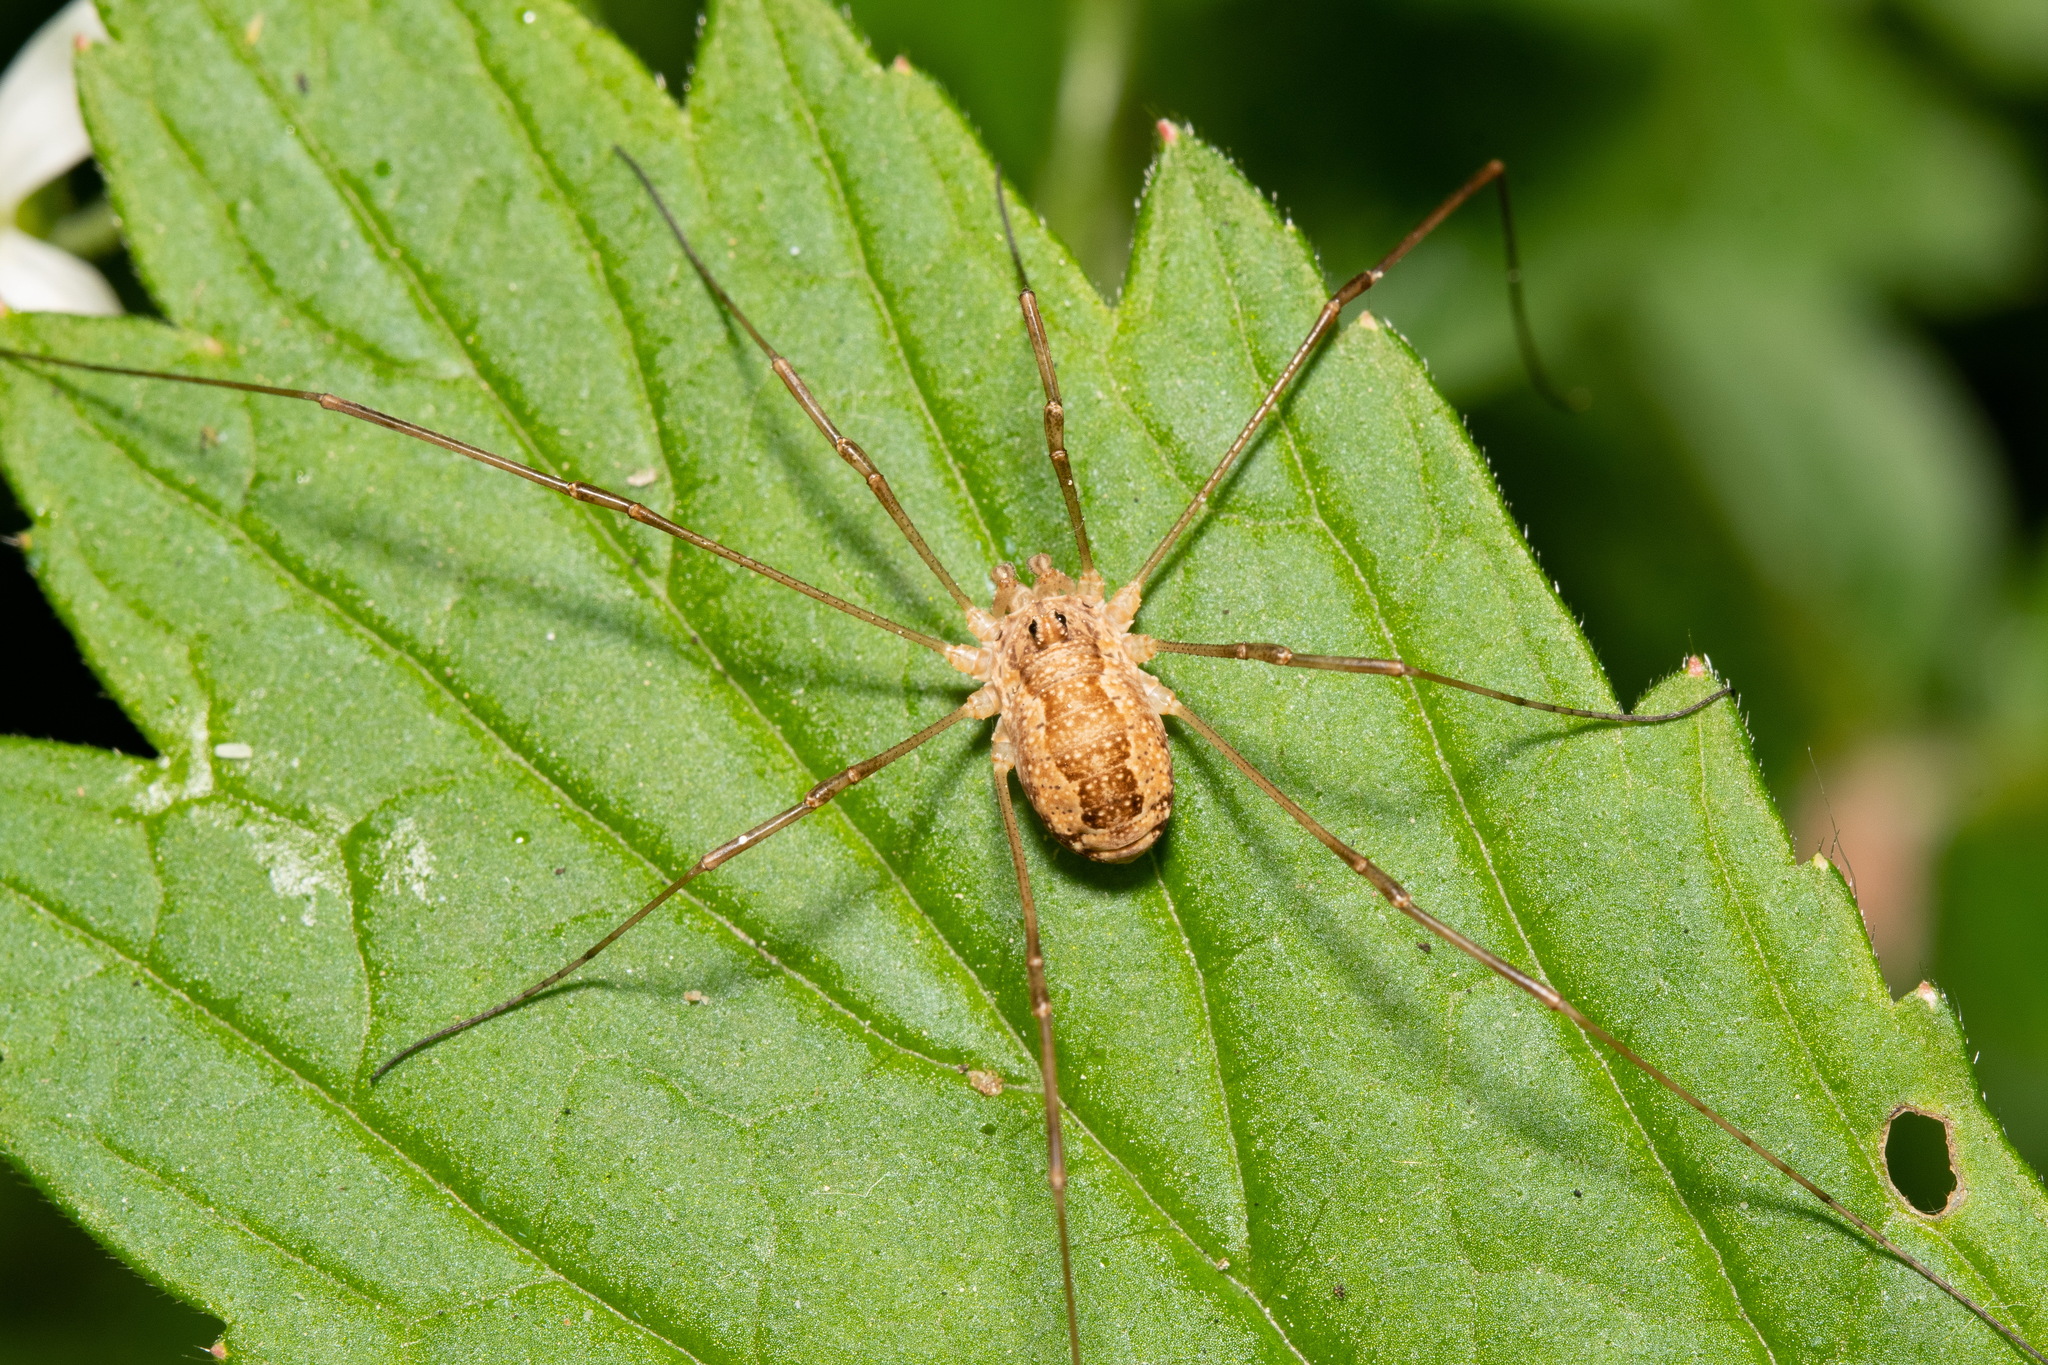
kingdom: Animalia
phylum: Arthropoda
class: Arachnida
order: Opiliones
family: Phalangiidae
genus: Rilaena
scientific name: Rilaena triangularis
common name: Spring harvestman
